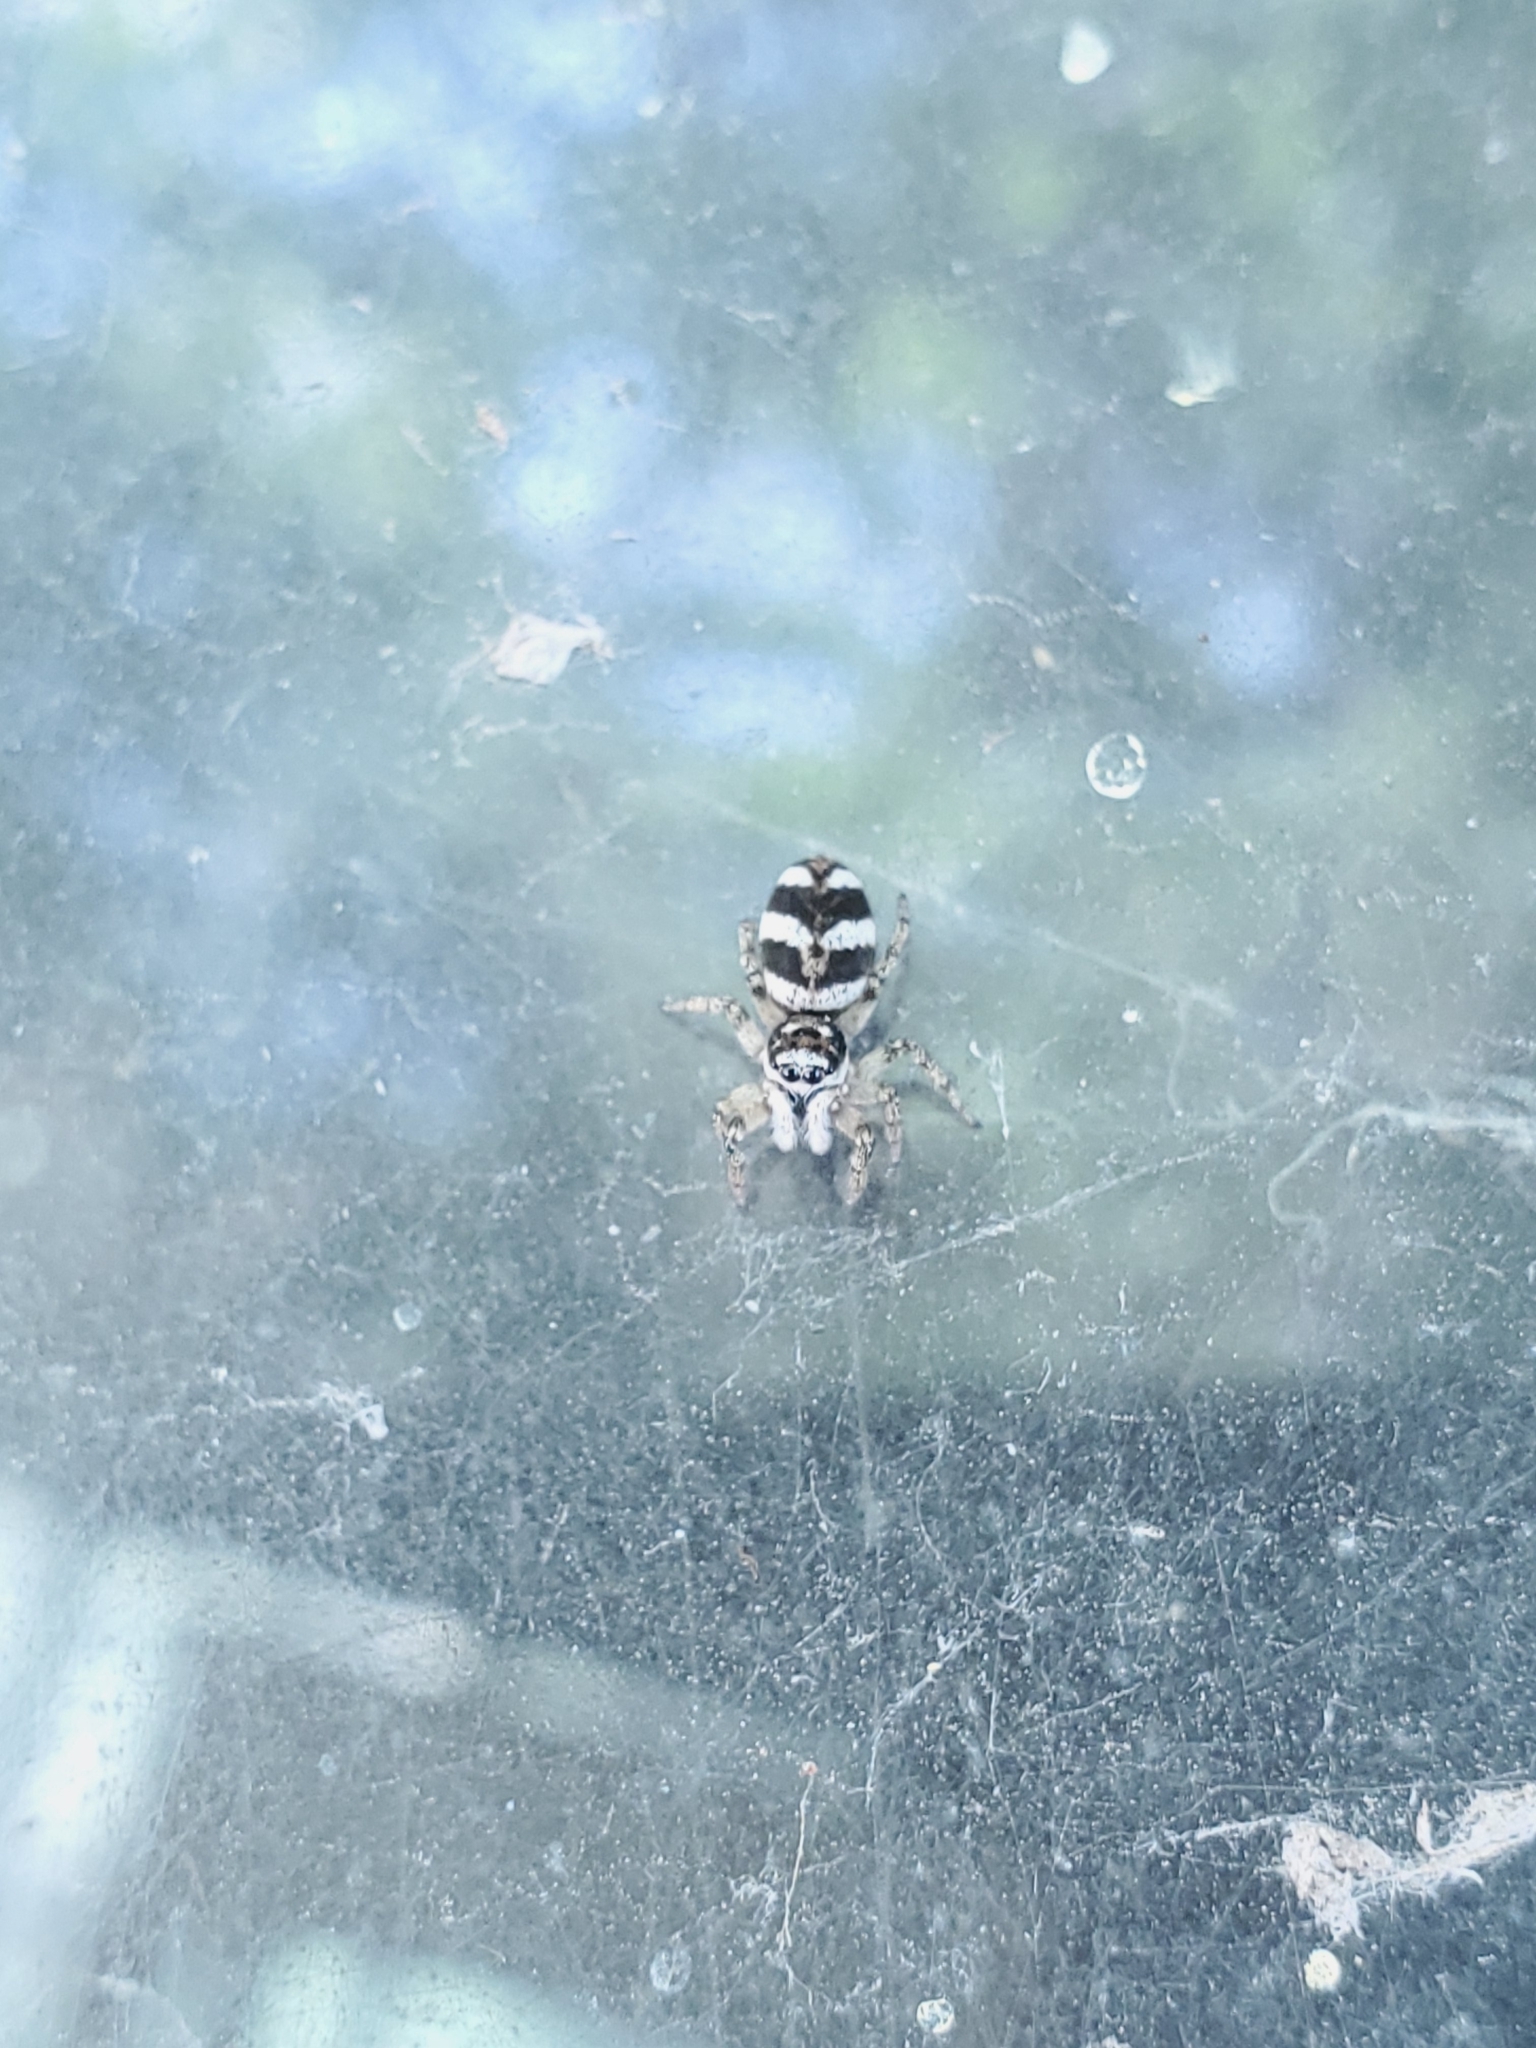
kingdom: Animalia
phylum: Arthropoda
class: Arachnida
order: Araneae
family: Salticidae
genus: Salticus
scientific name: Salticus scenicus
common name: Zebra jumper
